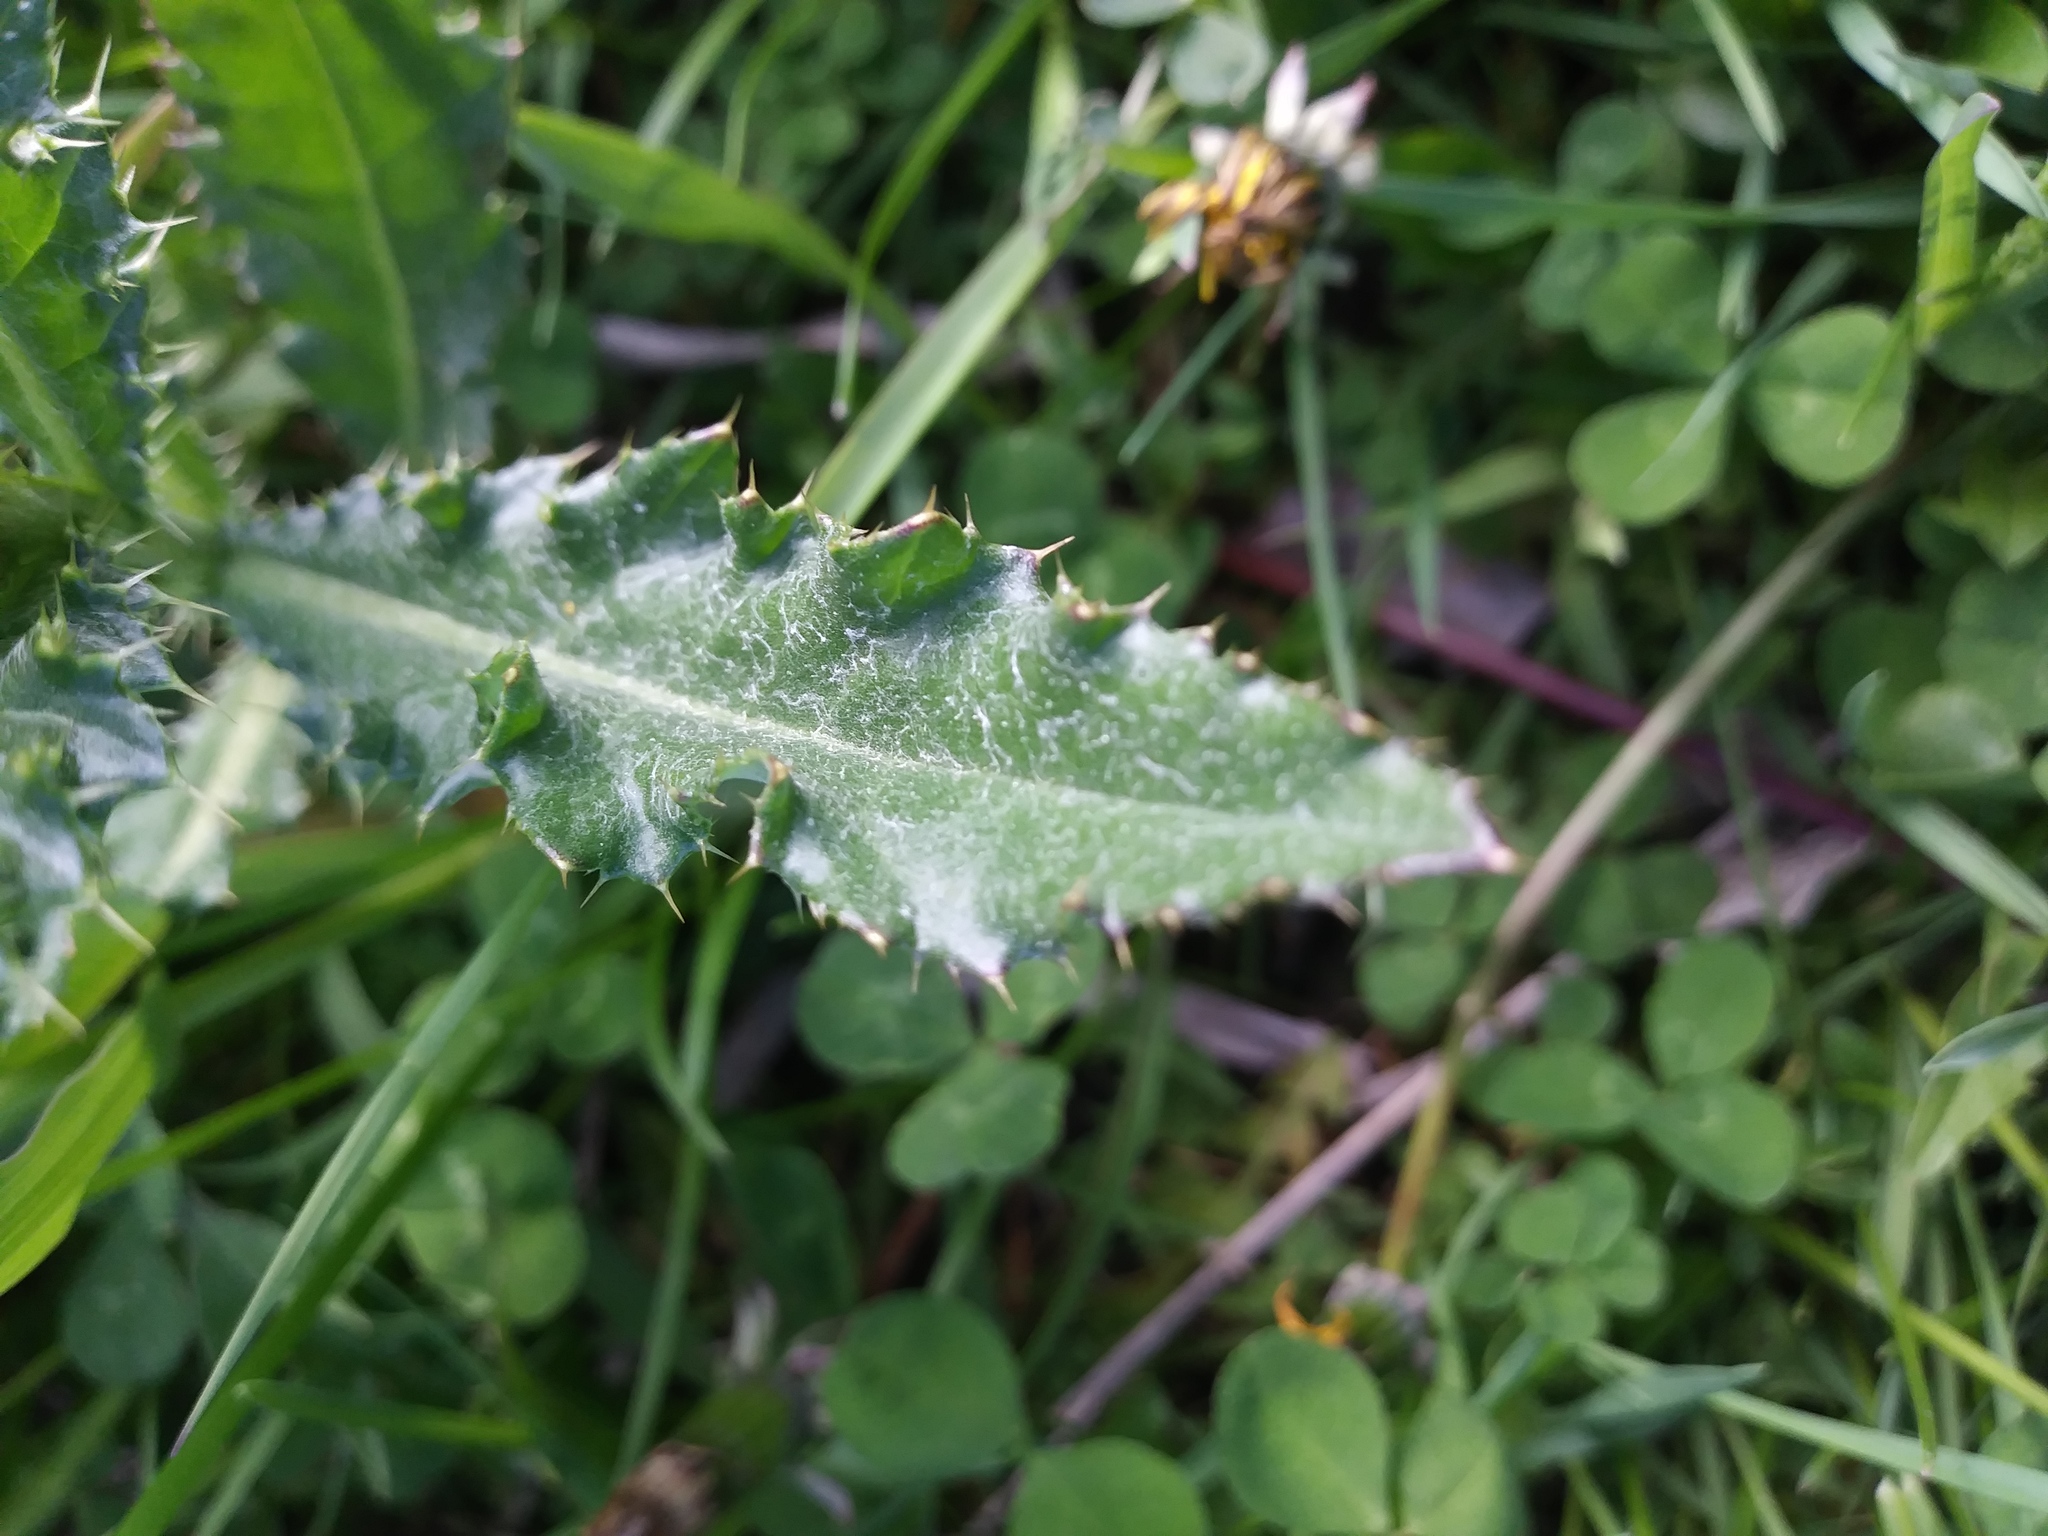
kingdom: Plantae
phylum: Tracheophyta
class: Magnoliopsida
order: Asterales
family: Asteraceae
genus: Cirsium
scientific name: Cirsium arvense
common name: Creeping thistle
